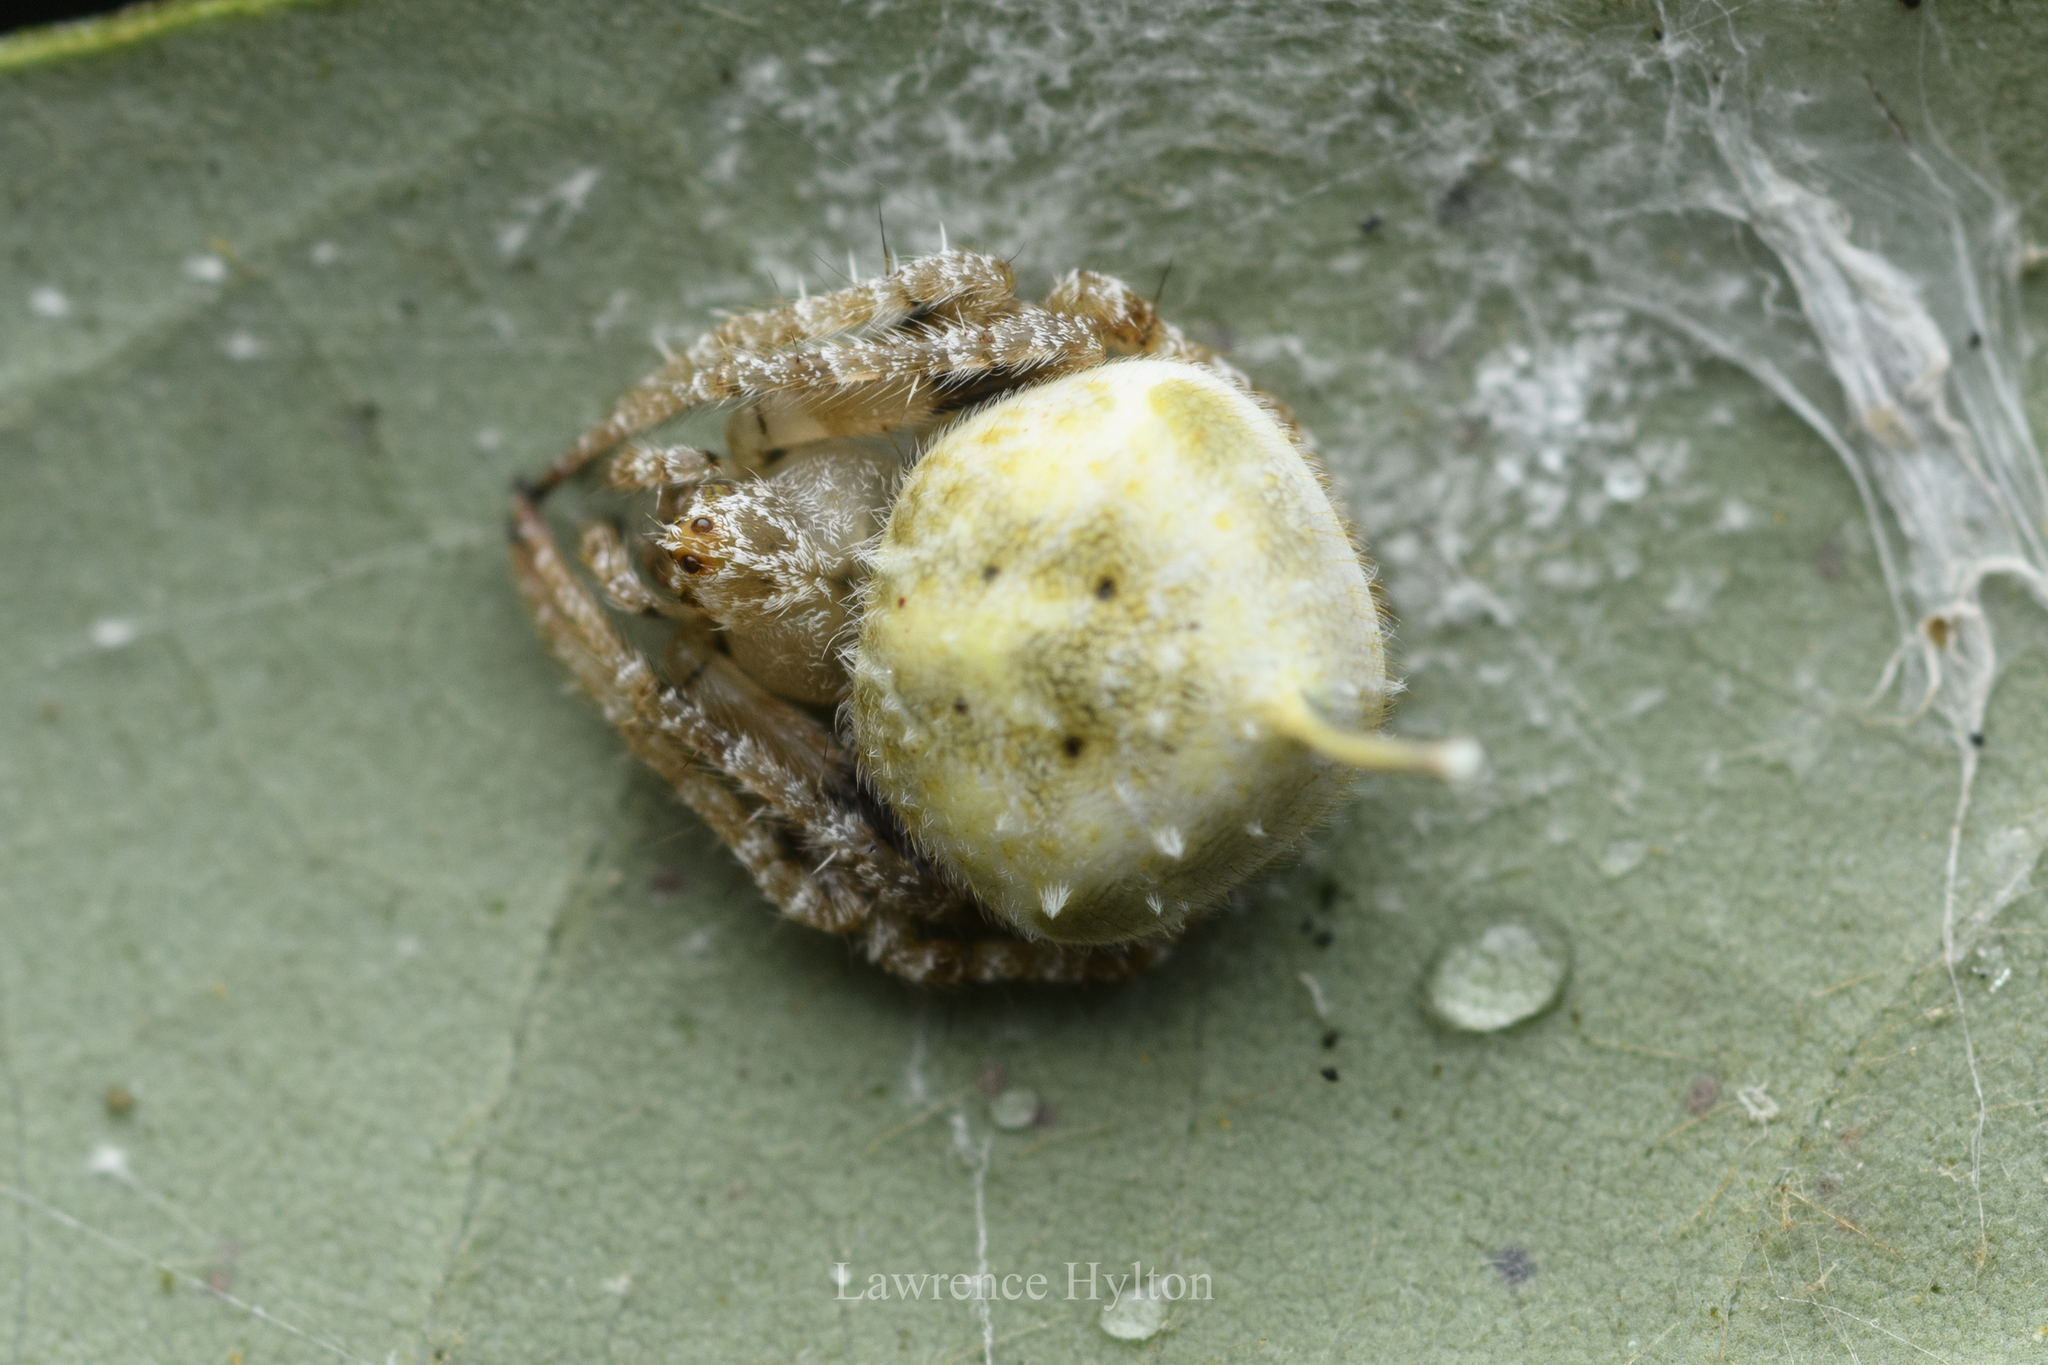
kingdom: Animalia
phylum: Arthropoda
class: Arachnida
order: Araneae
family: Araneidae
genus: Eriovixia
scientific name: Eriovixia laglaizei
